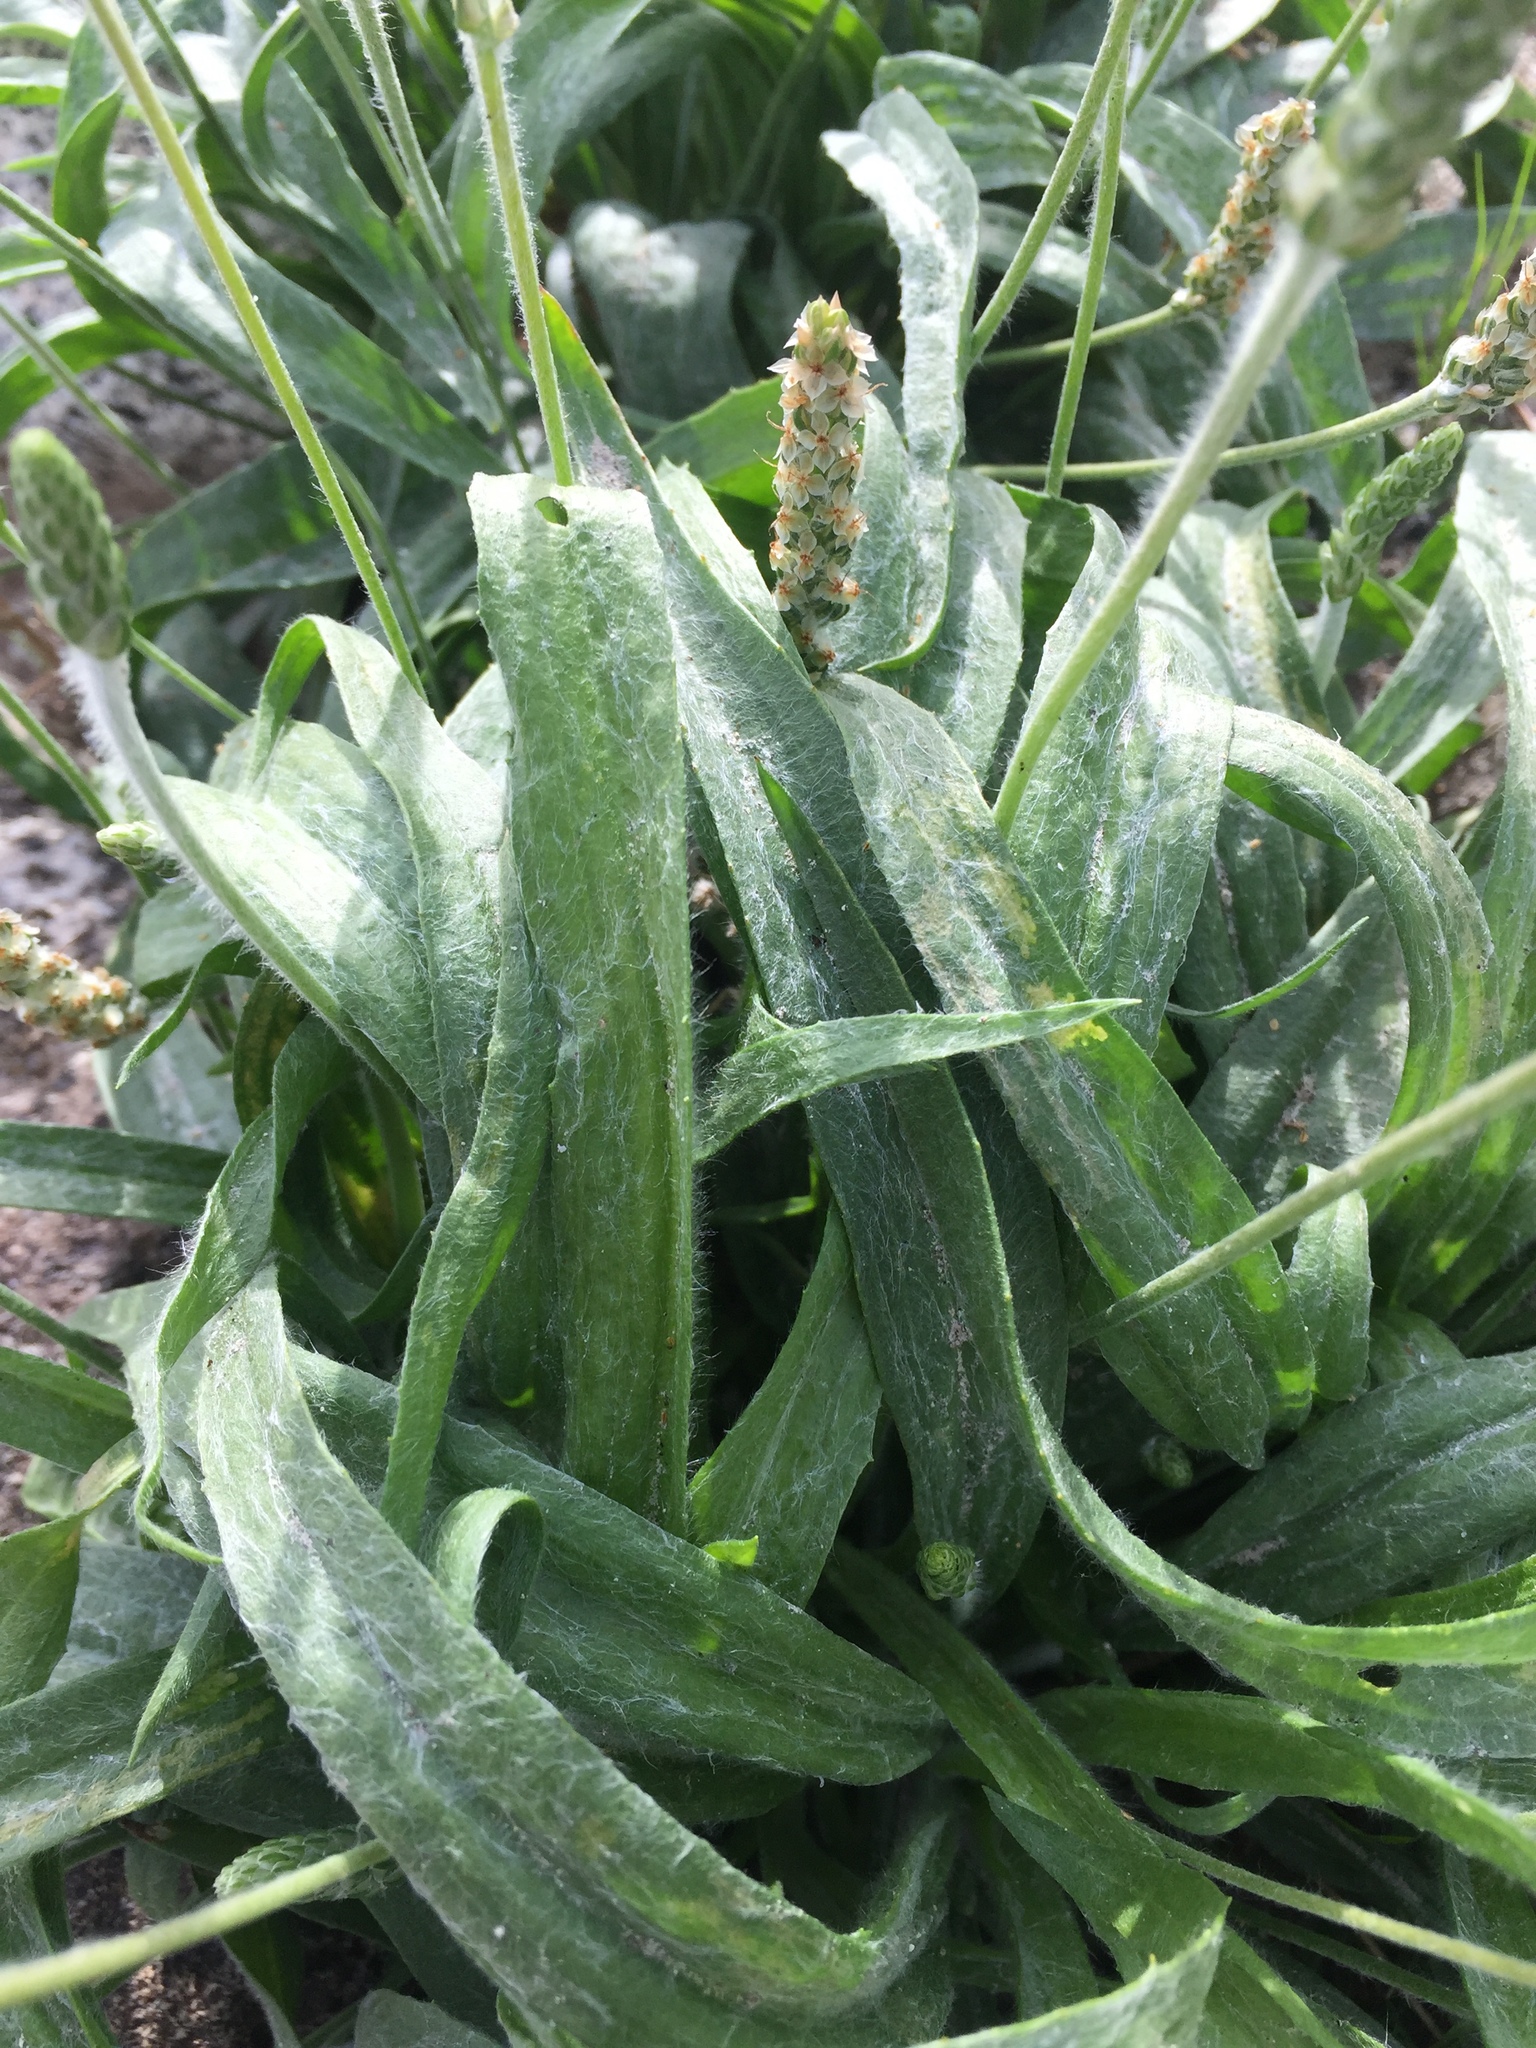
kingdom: Plantae
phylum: Tracheophyta
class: Magnoliopsida
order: Lamiales
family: Plantaginaceae
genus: Plantago
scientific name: Plantago ovata
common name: Blond plantain
